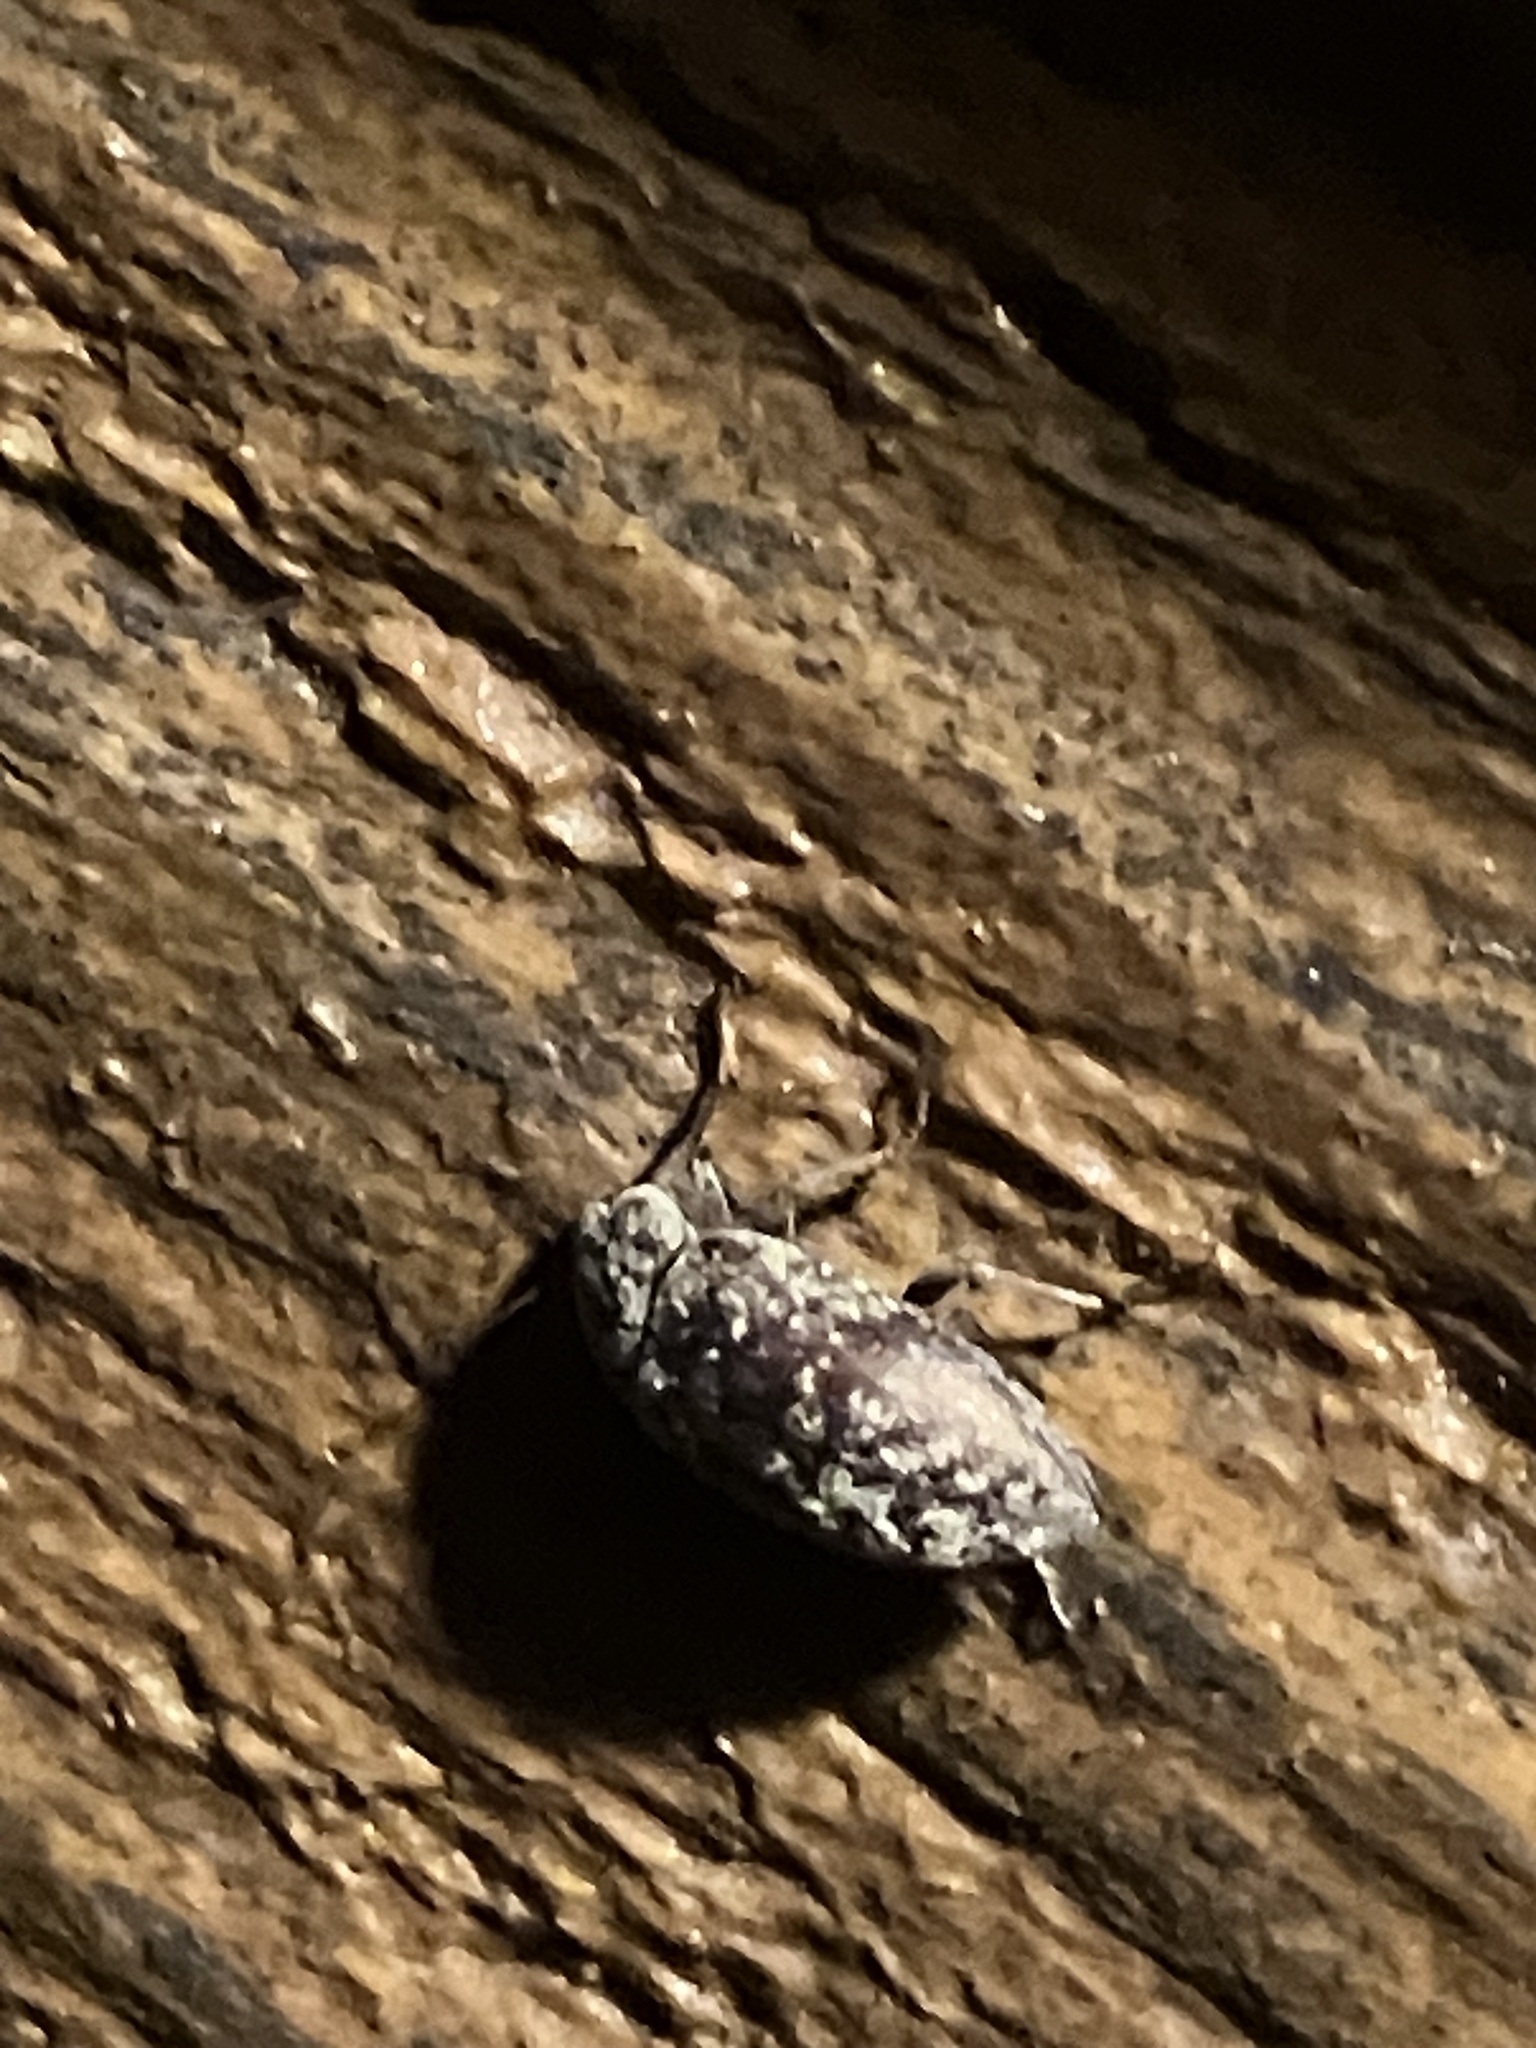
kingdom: Animalia
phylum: Arthropoda
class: Insecta
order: Coleoptera
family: Tenebrionidae
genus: Epitragodes
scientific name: Epitragodes tomentosus
